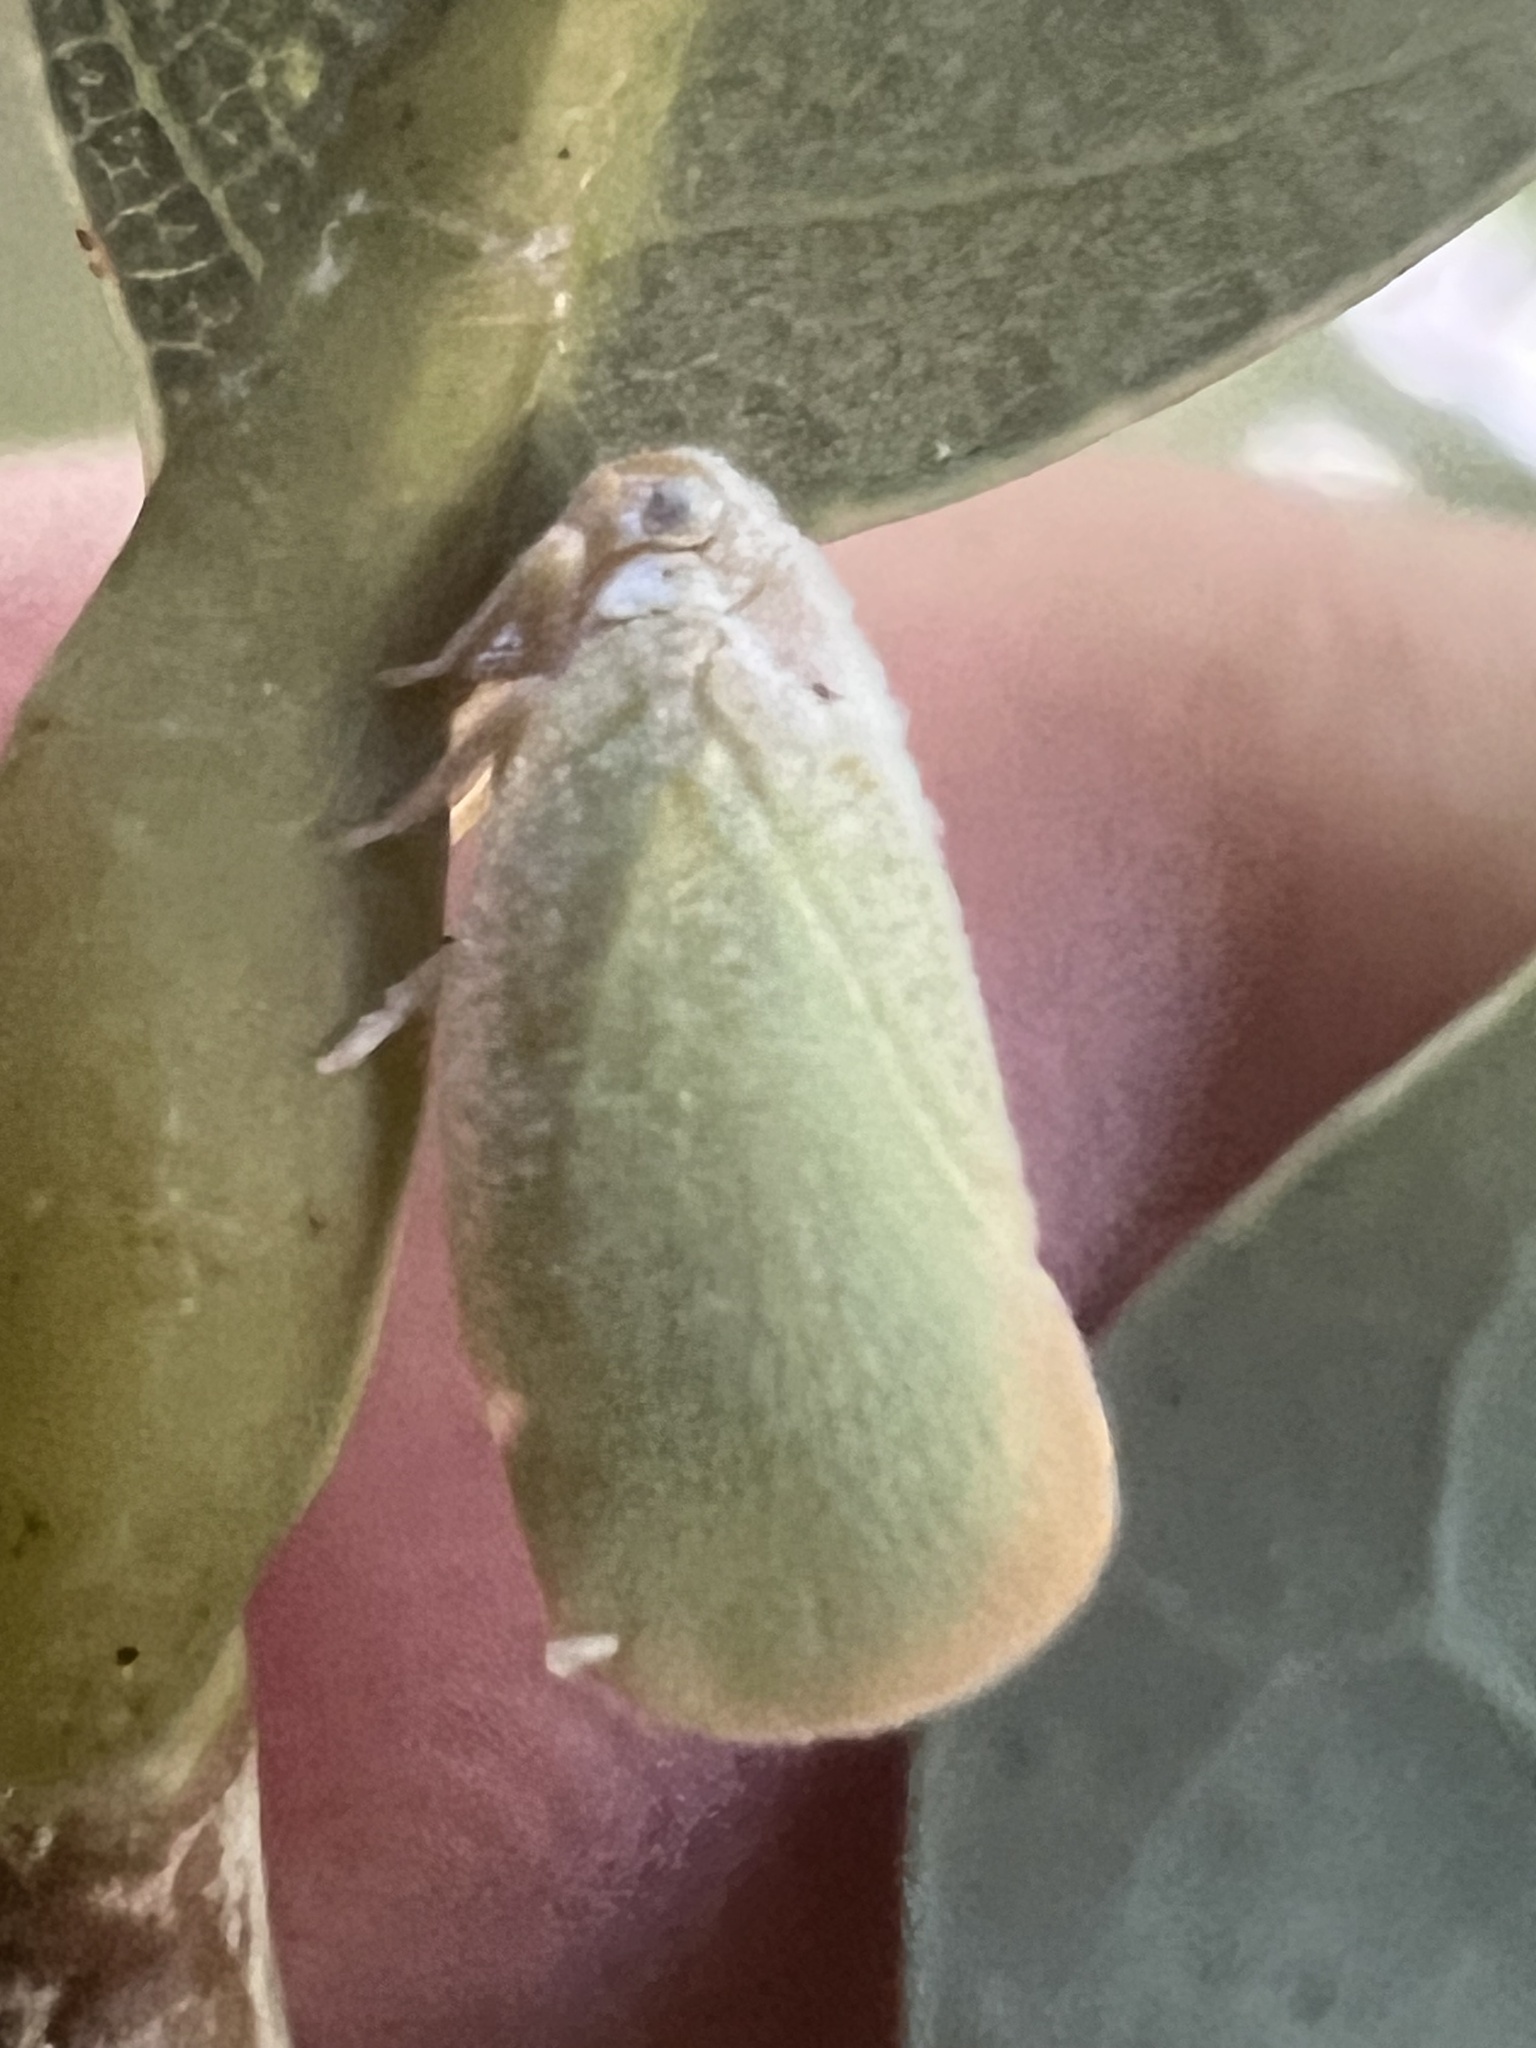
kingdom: Animalia
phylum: Arthropoda
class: Insecta
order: Hemiptera
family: Flatidae
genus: Ormenoides
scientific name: Ormenoides venusta
